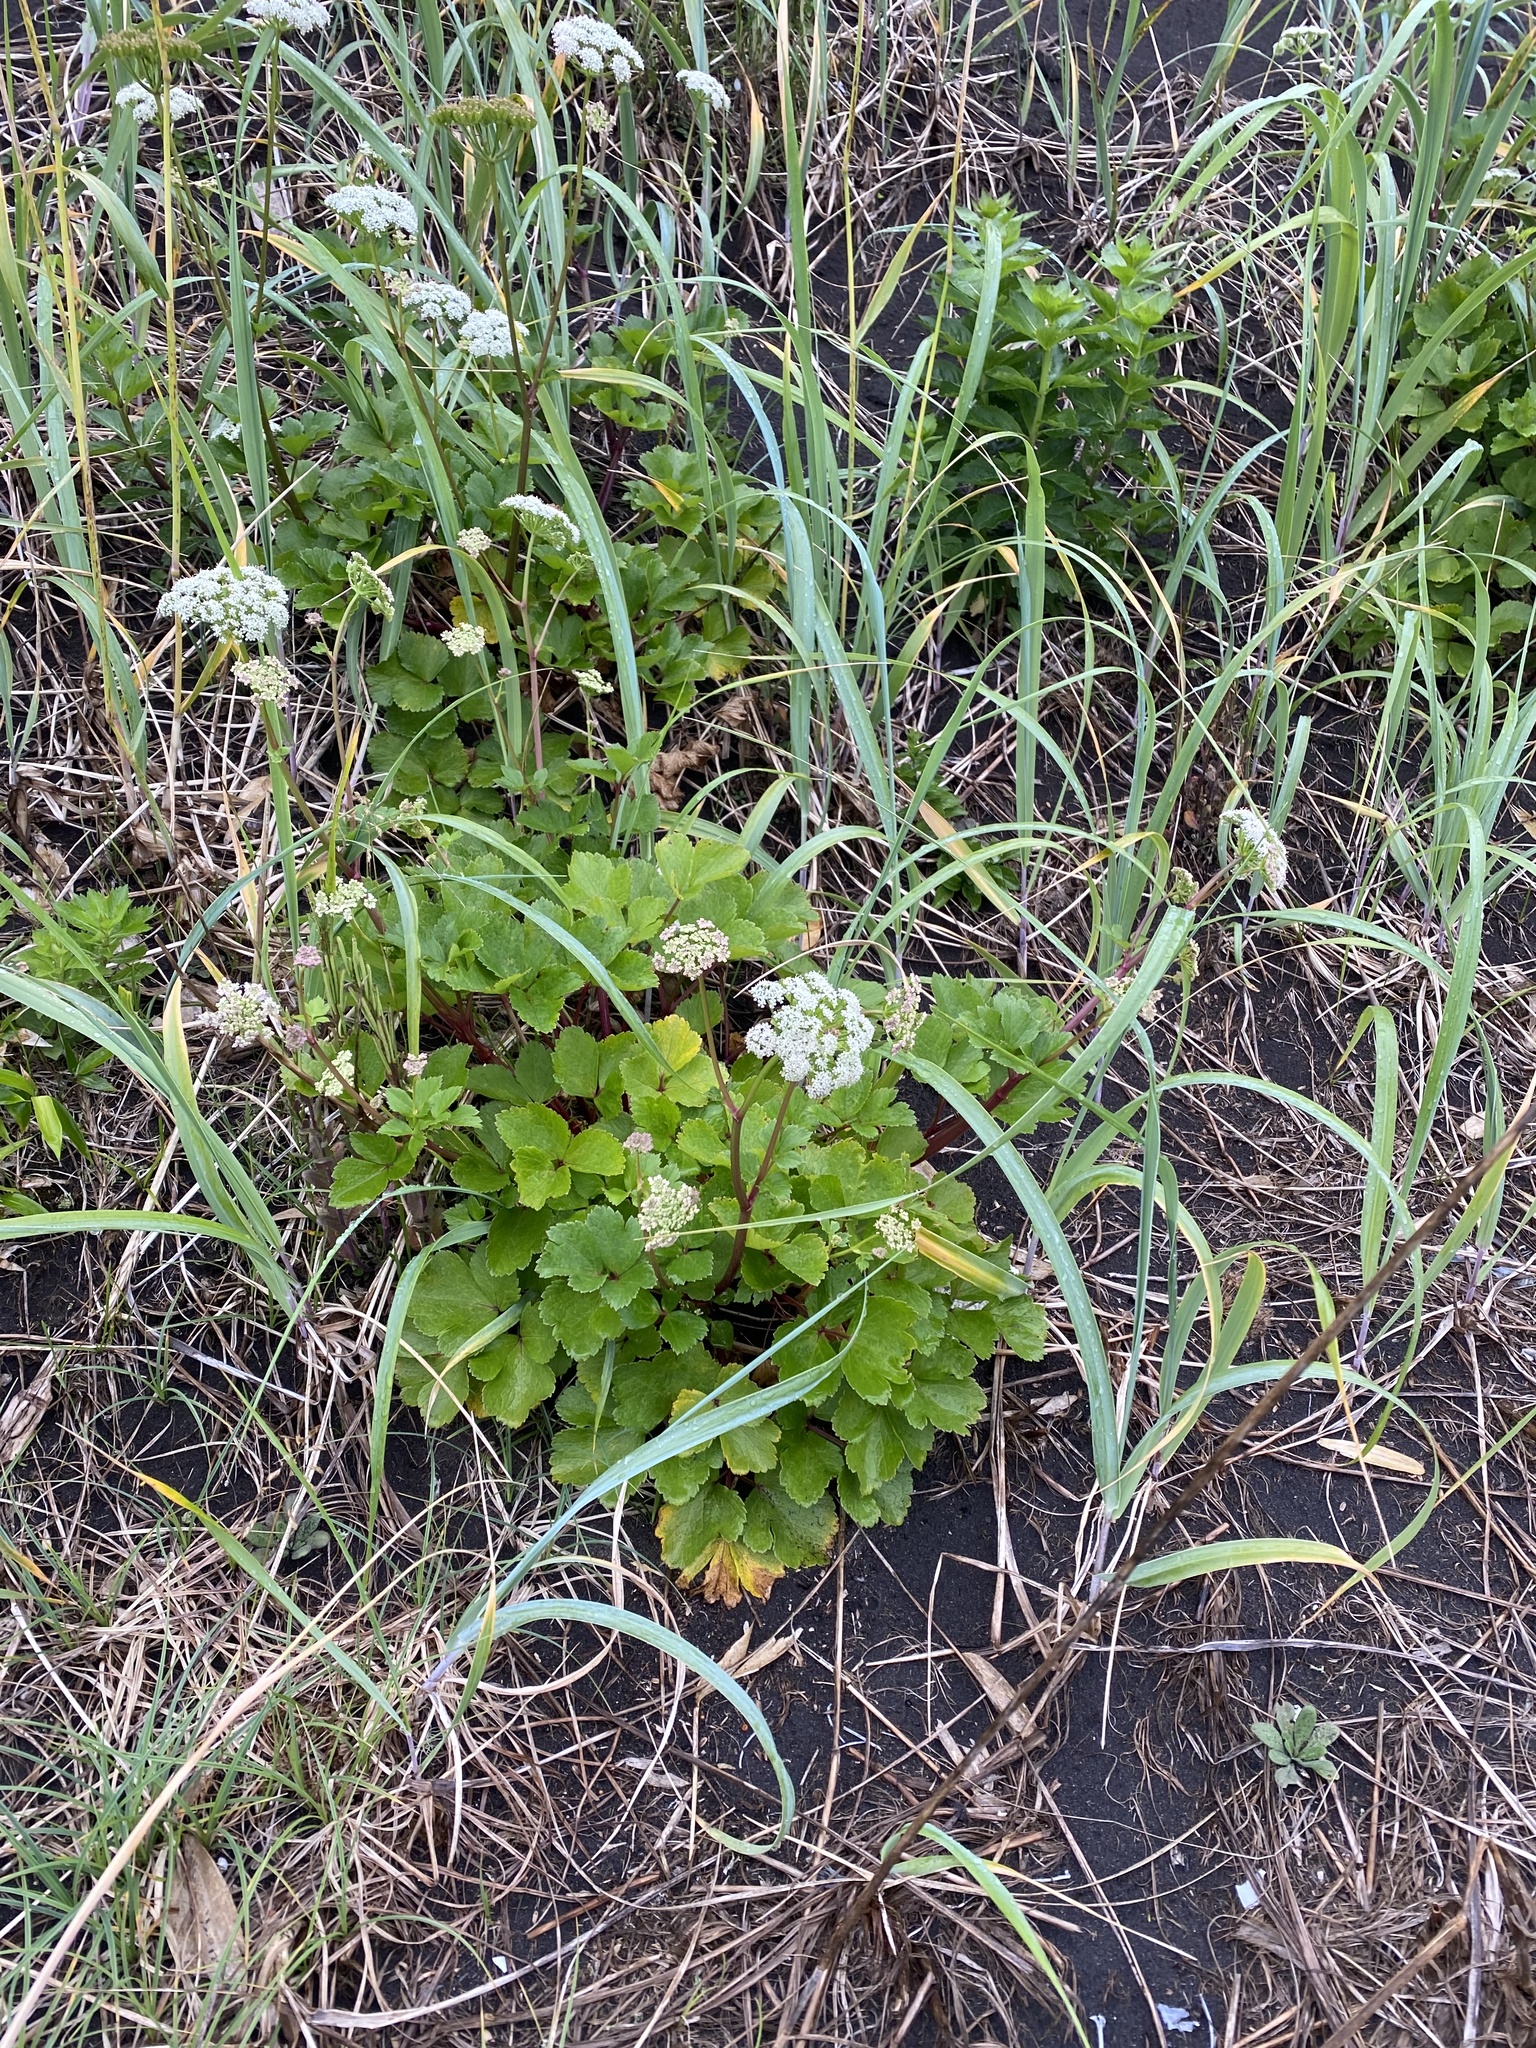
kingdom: Plantae
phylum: Tracheophyta
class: Magnoliopsida
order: Apiales
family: Apiaceae
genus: Ligusticum
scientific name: Ligusticum scothicum
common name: Beach lovage
